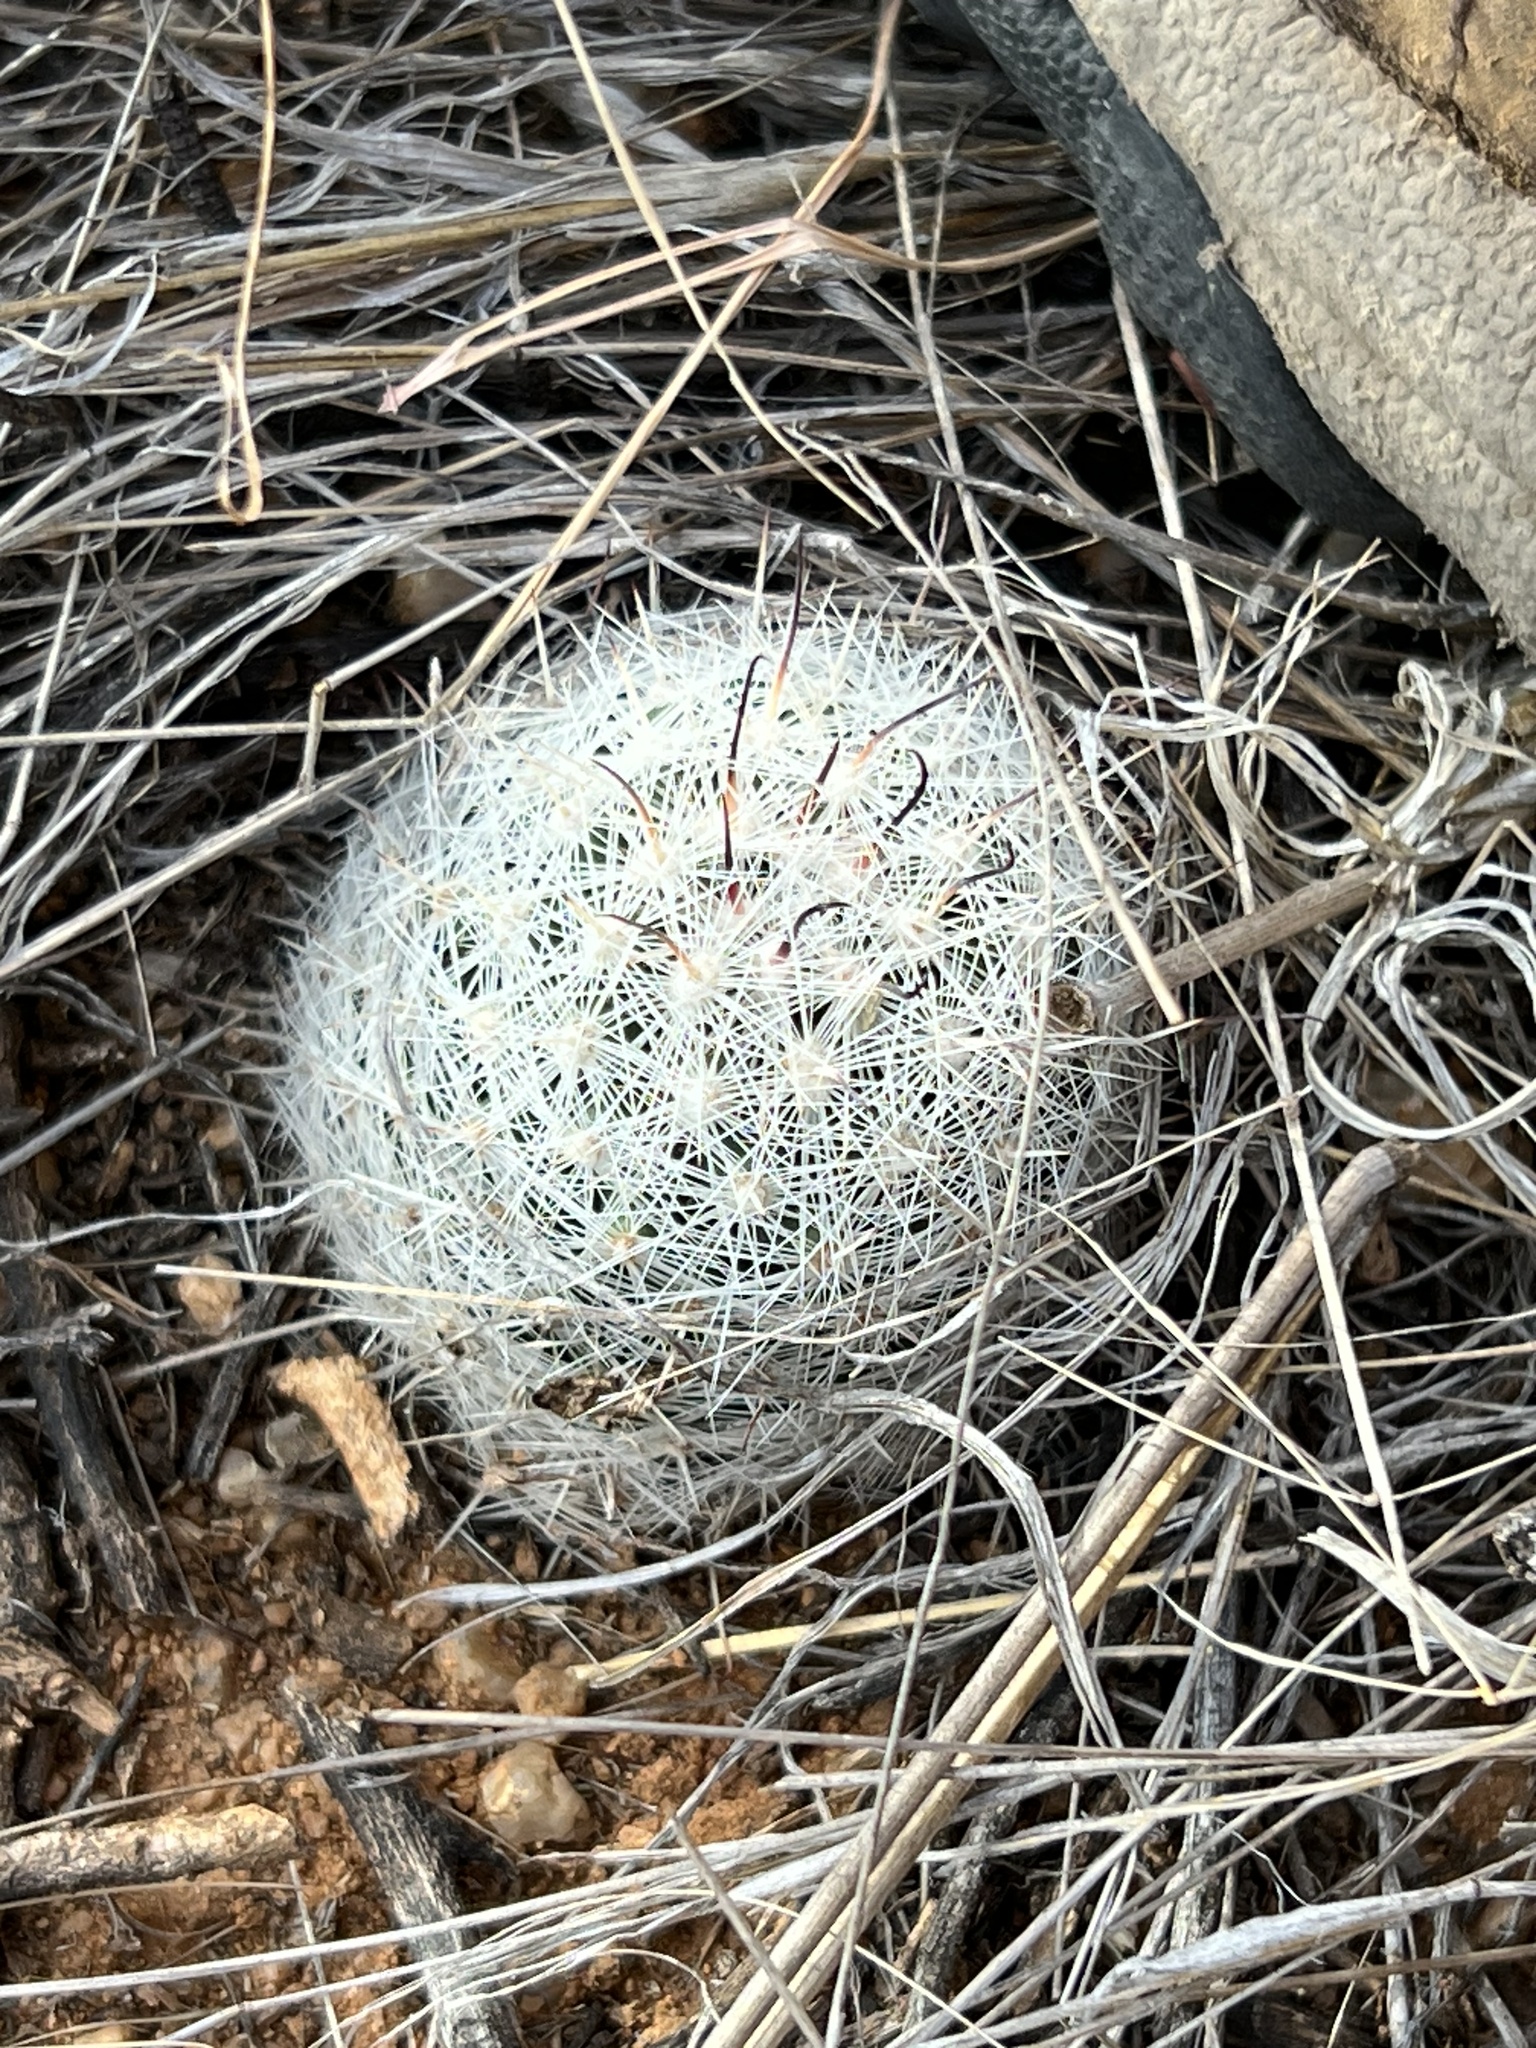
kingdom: Plantae
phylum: Tracheophyta
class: Magnoliopsida
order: Caryophyllales
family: Cactaceae
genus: Cochemiea
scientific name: Cochemiea grahamii
